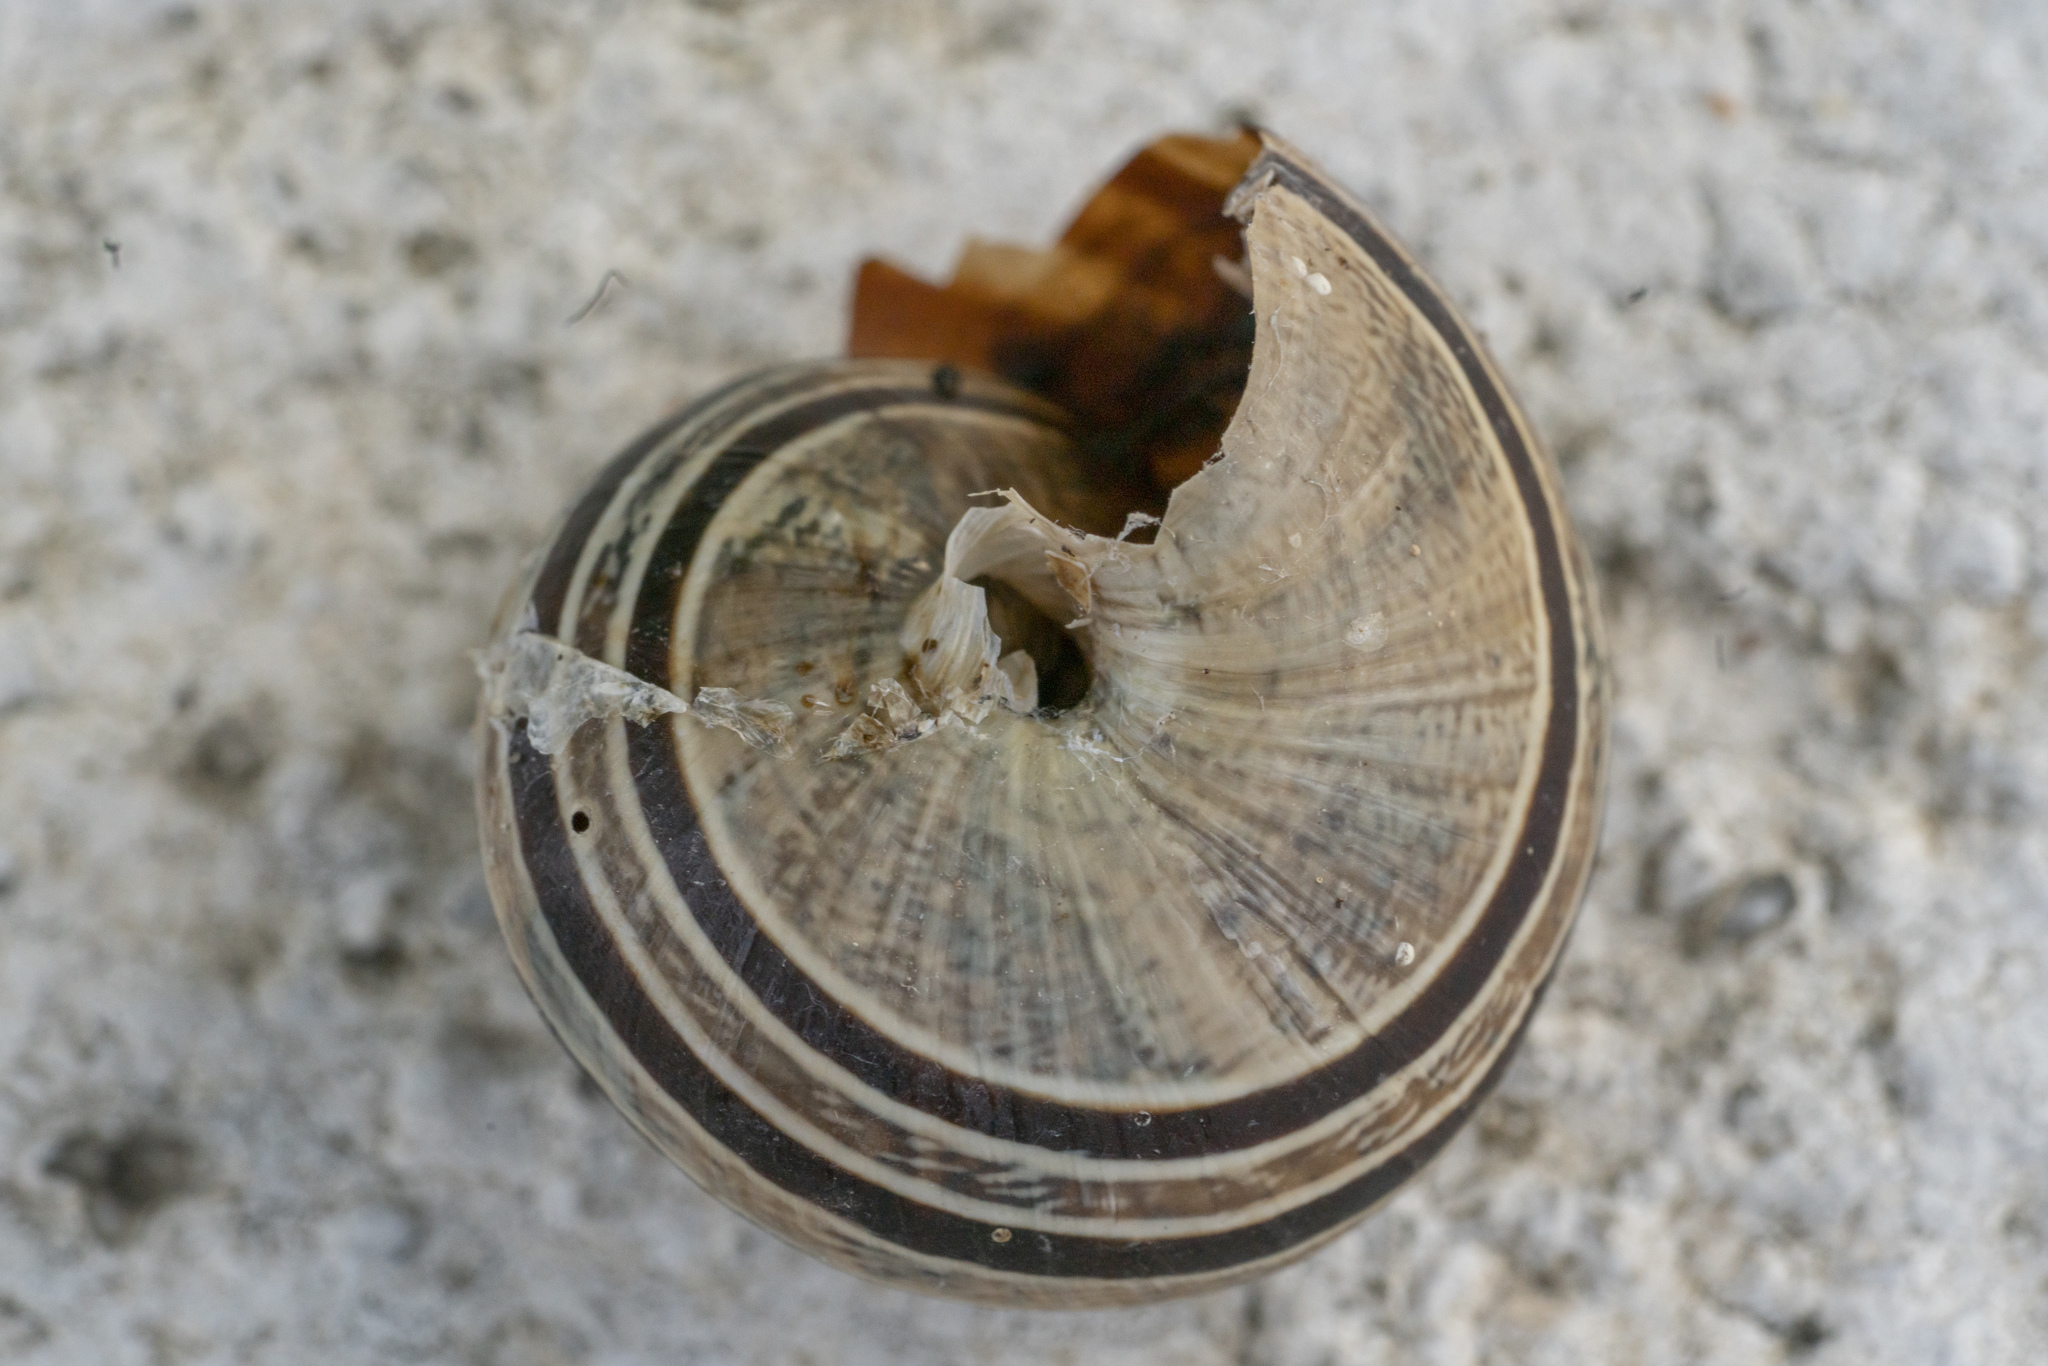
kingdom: Animalia
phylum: Mollusca
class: Gastropoda
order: Stylommatophora
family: Helicidae
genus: Eobania
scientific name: Eobania vermiculata
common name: Chocolateband snail
